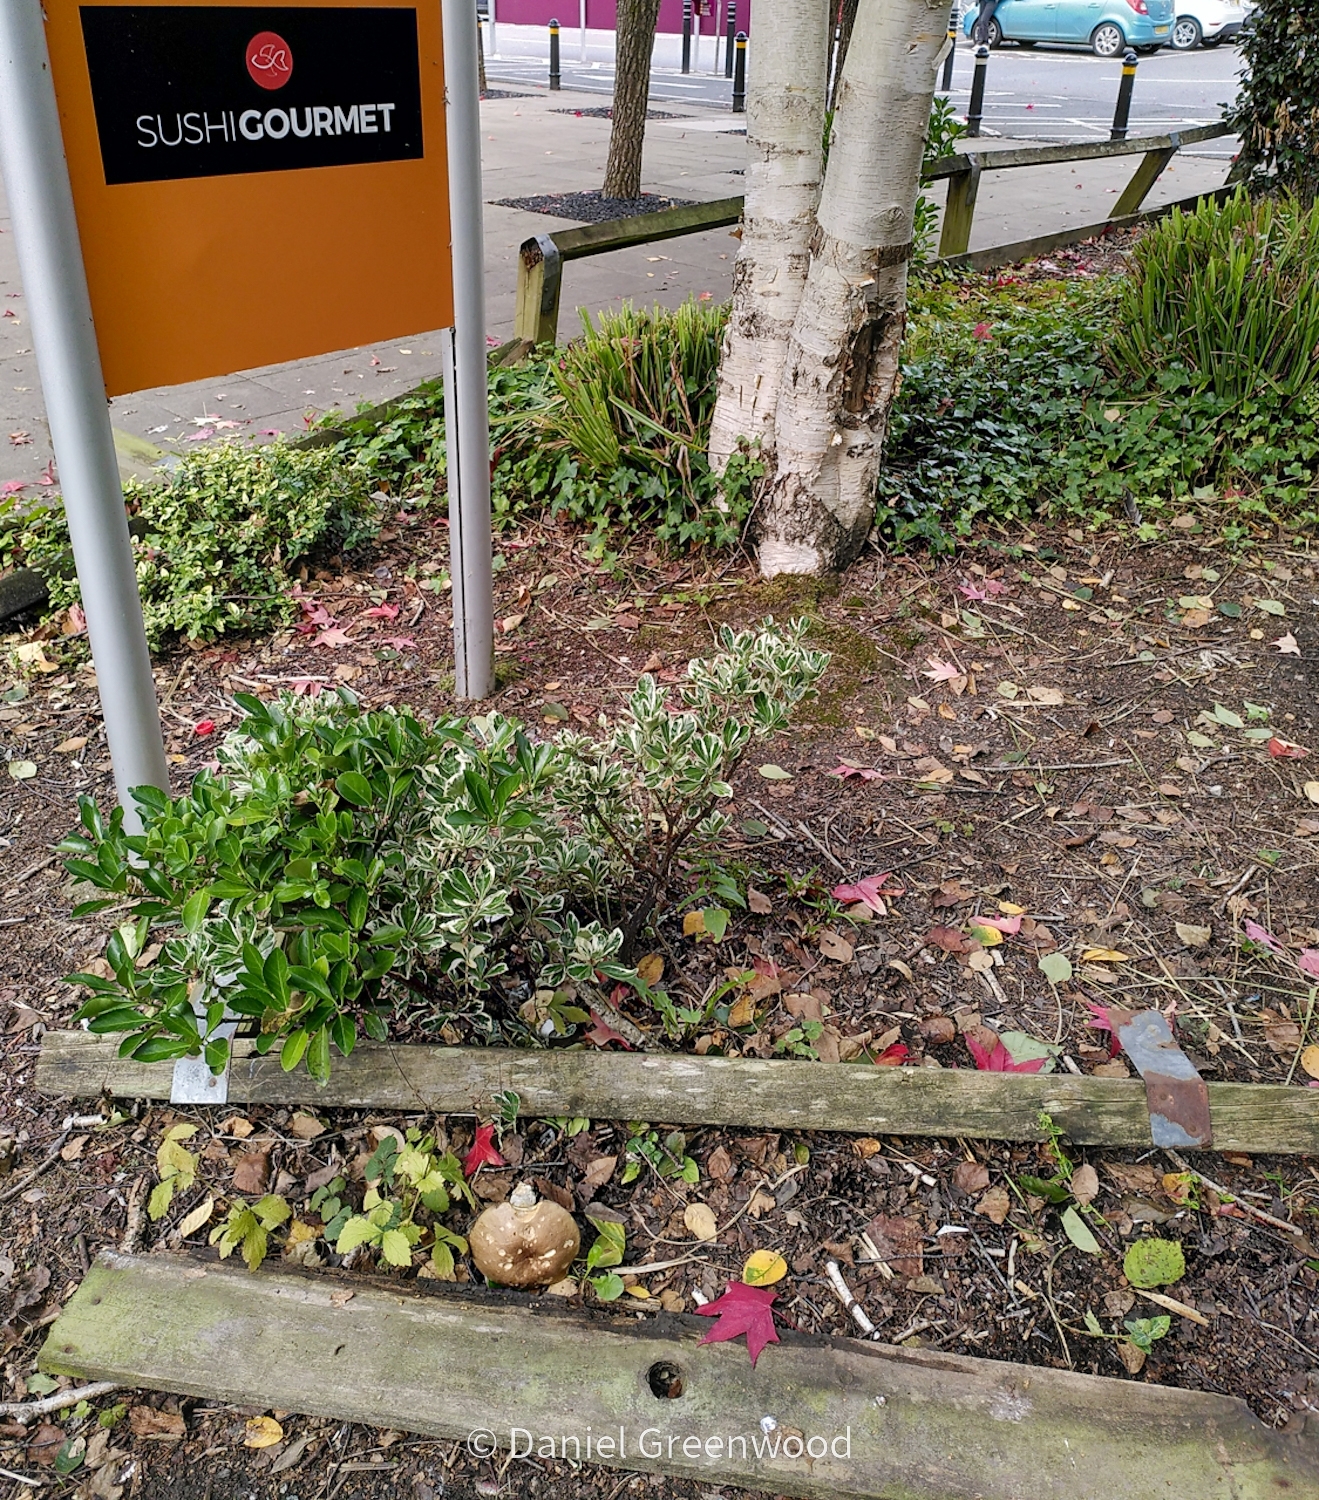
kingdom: Fungi
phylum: Basidiomycota
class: Agaricomycetes
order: Boletales
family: Boletaceae
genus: Leccinum
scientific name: Leccinum scabrum
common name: Blushing bolete
